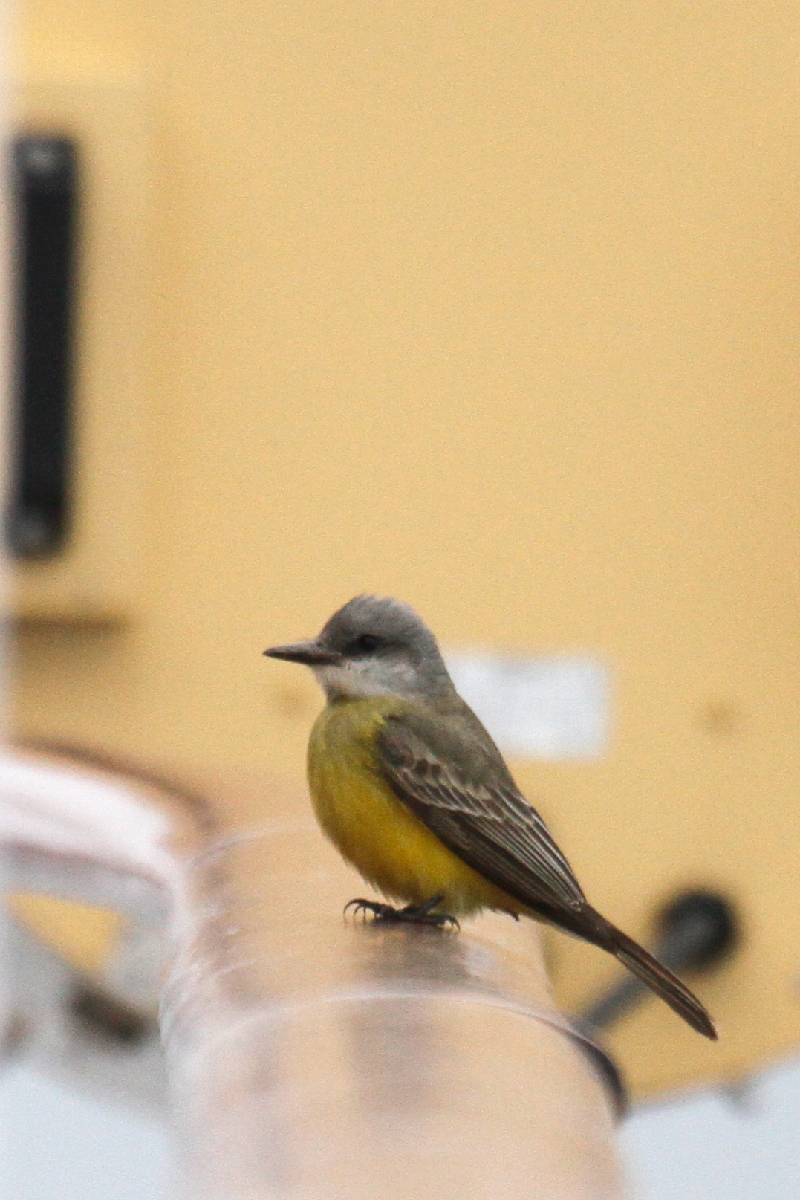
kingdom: Animalia
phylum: Chordata
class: Aves
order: Passeriformes
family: Tyrannidae
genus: Tyrannus
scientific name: Tyrannus melancholicus
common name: Tropical kingbird
